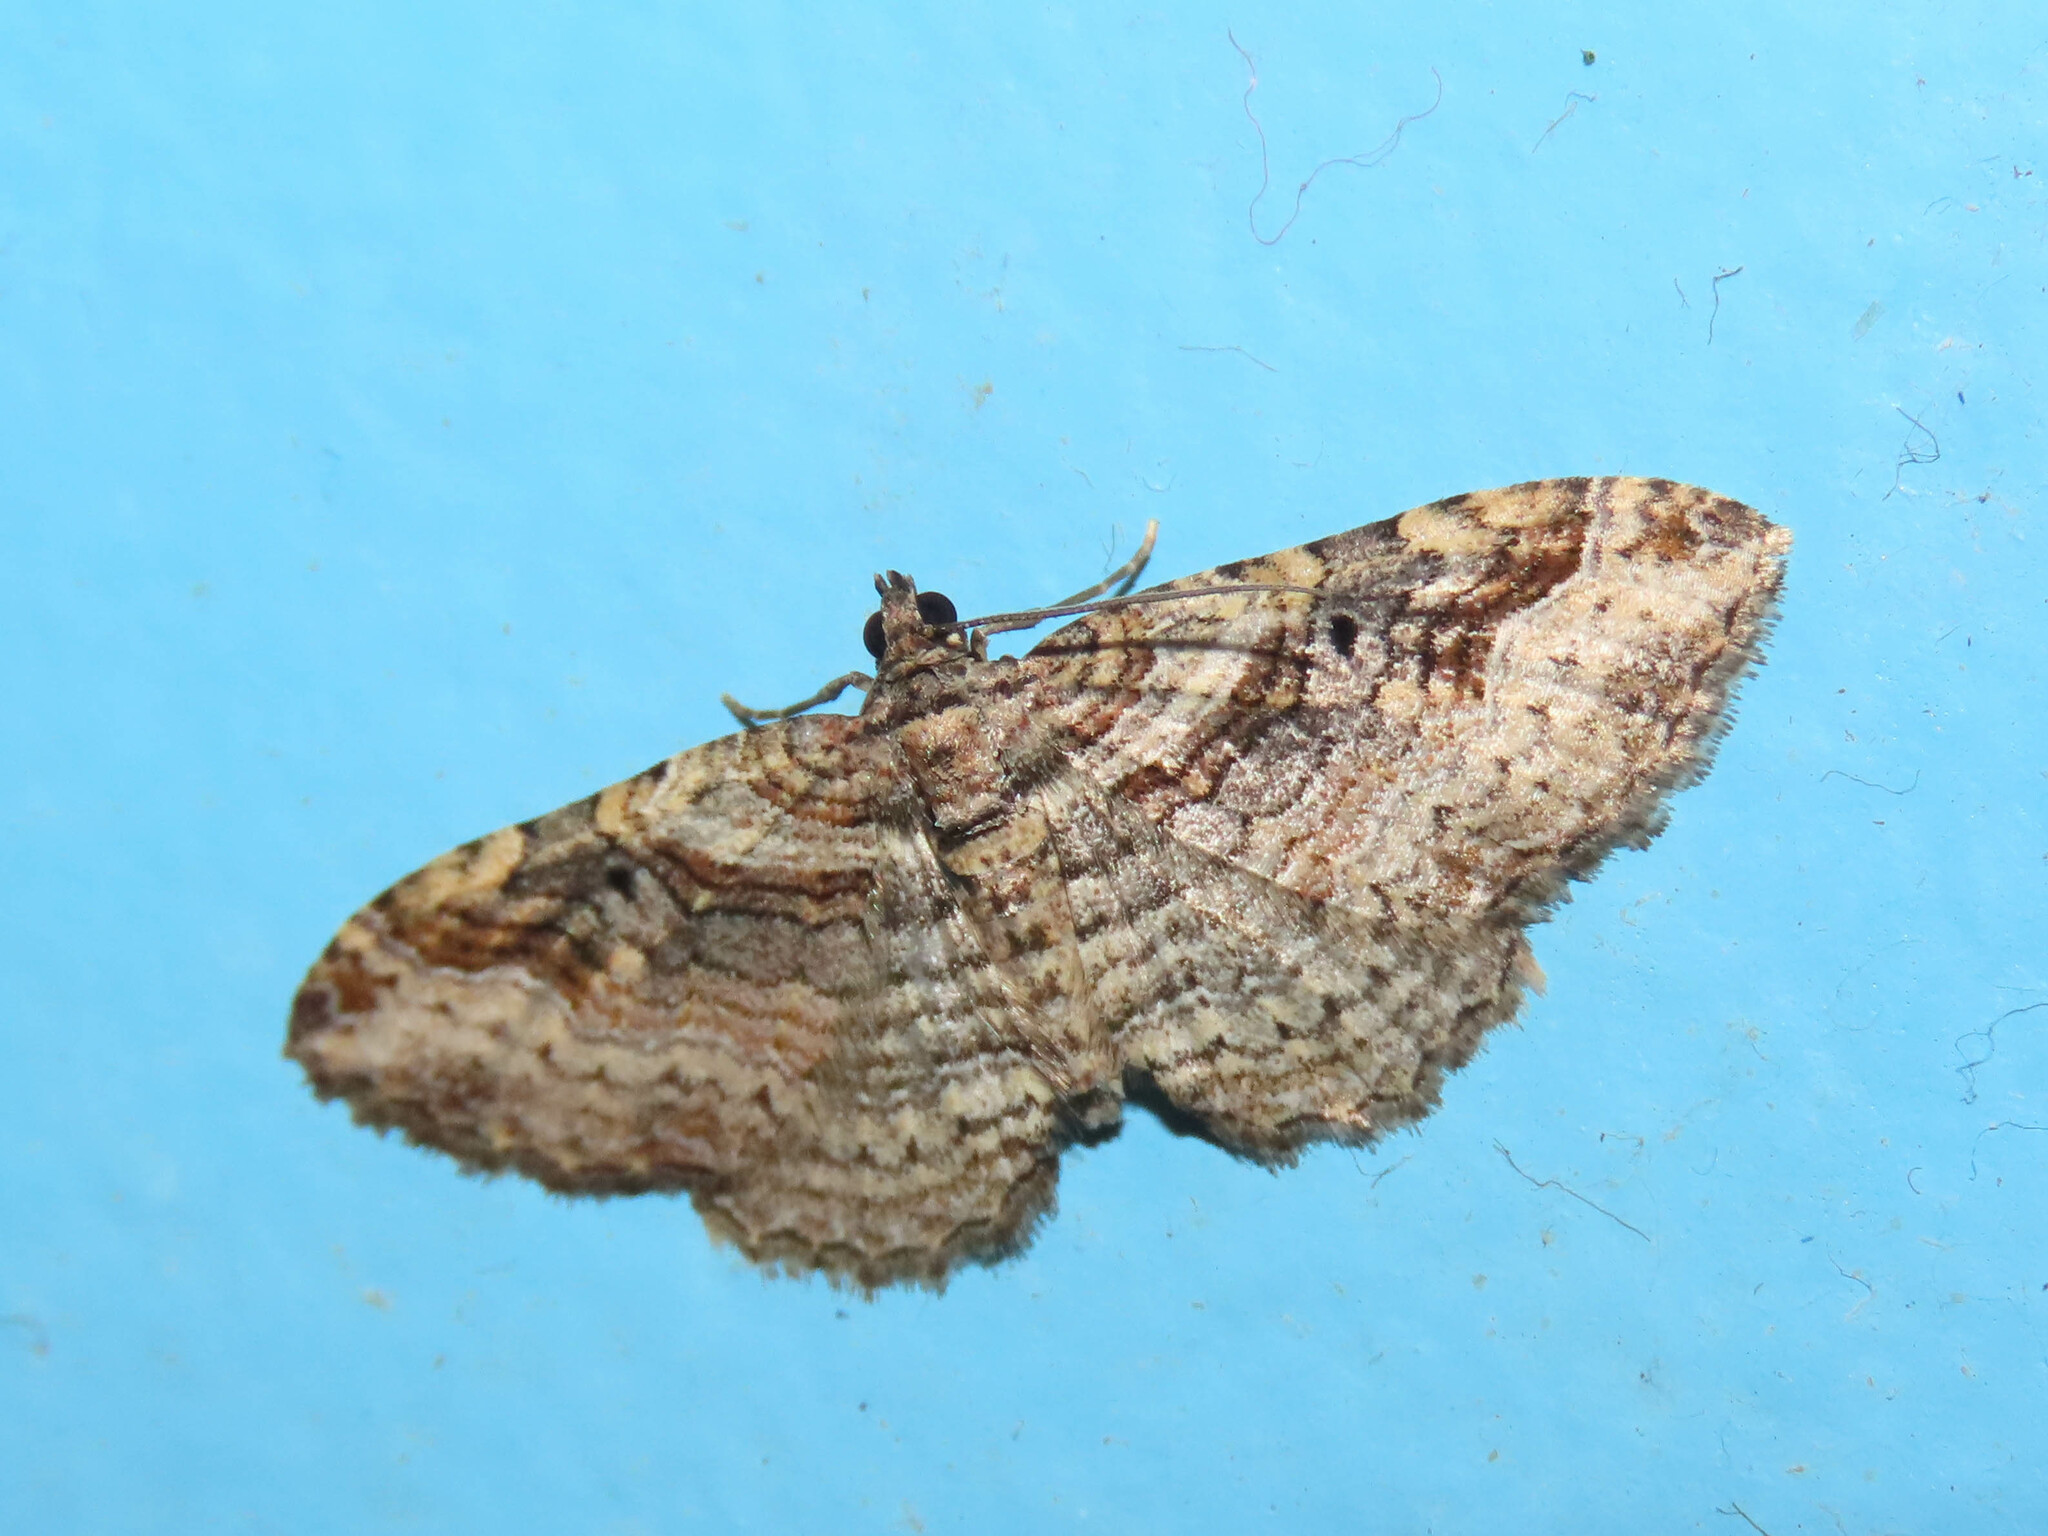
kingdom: Animalia
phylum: Arthropoda
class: Insecta
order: Lepidoptera
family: Geometridae
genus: Costaconvexa
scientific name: Costaconvexa centrostrigaria
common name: Bent-line carpet
